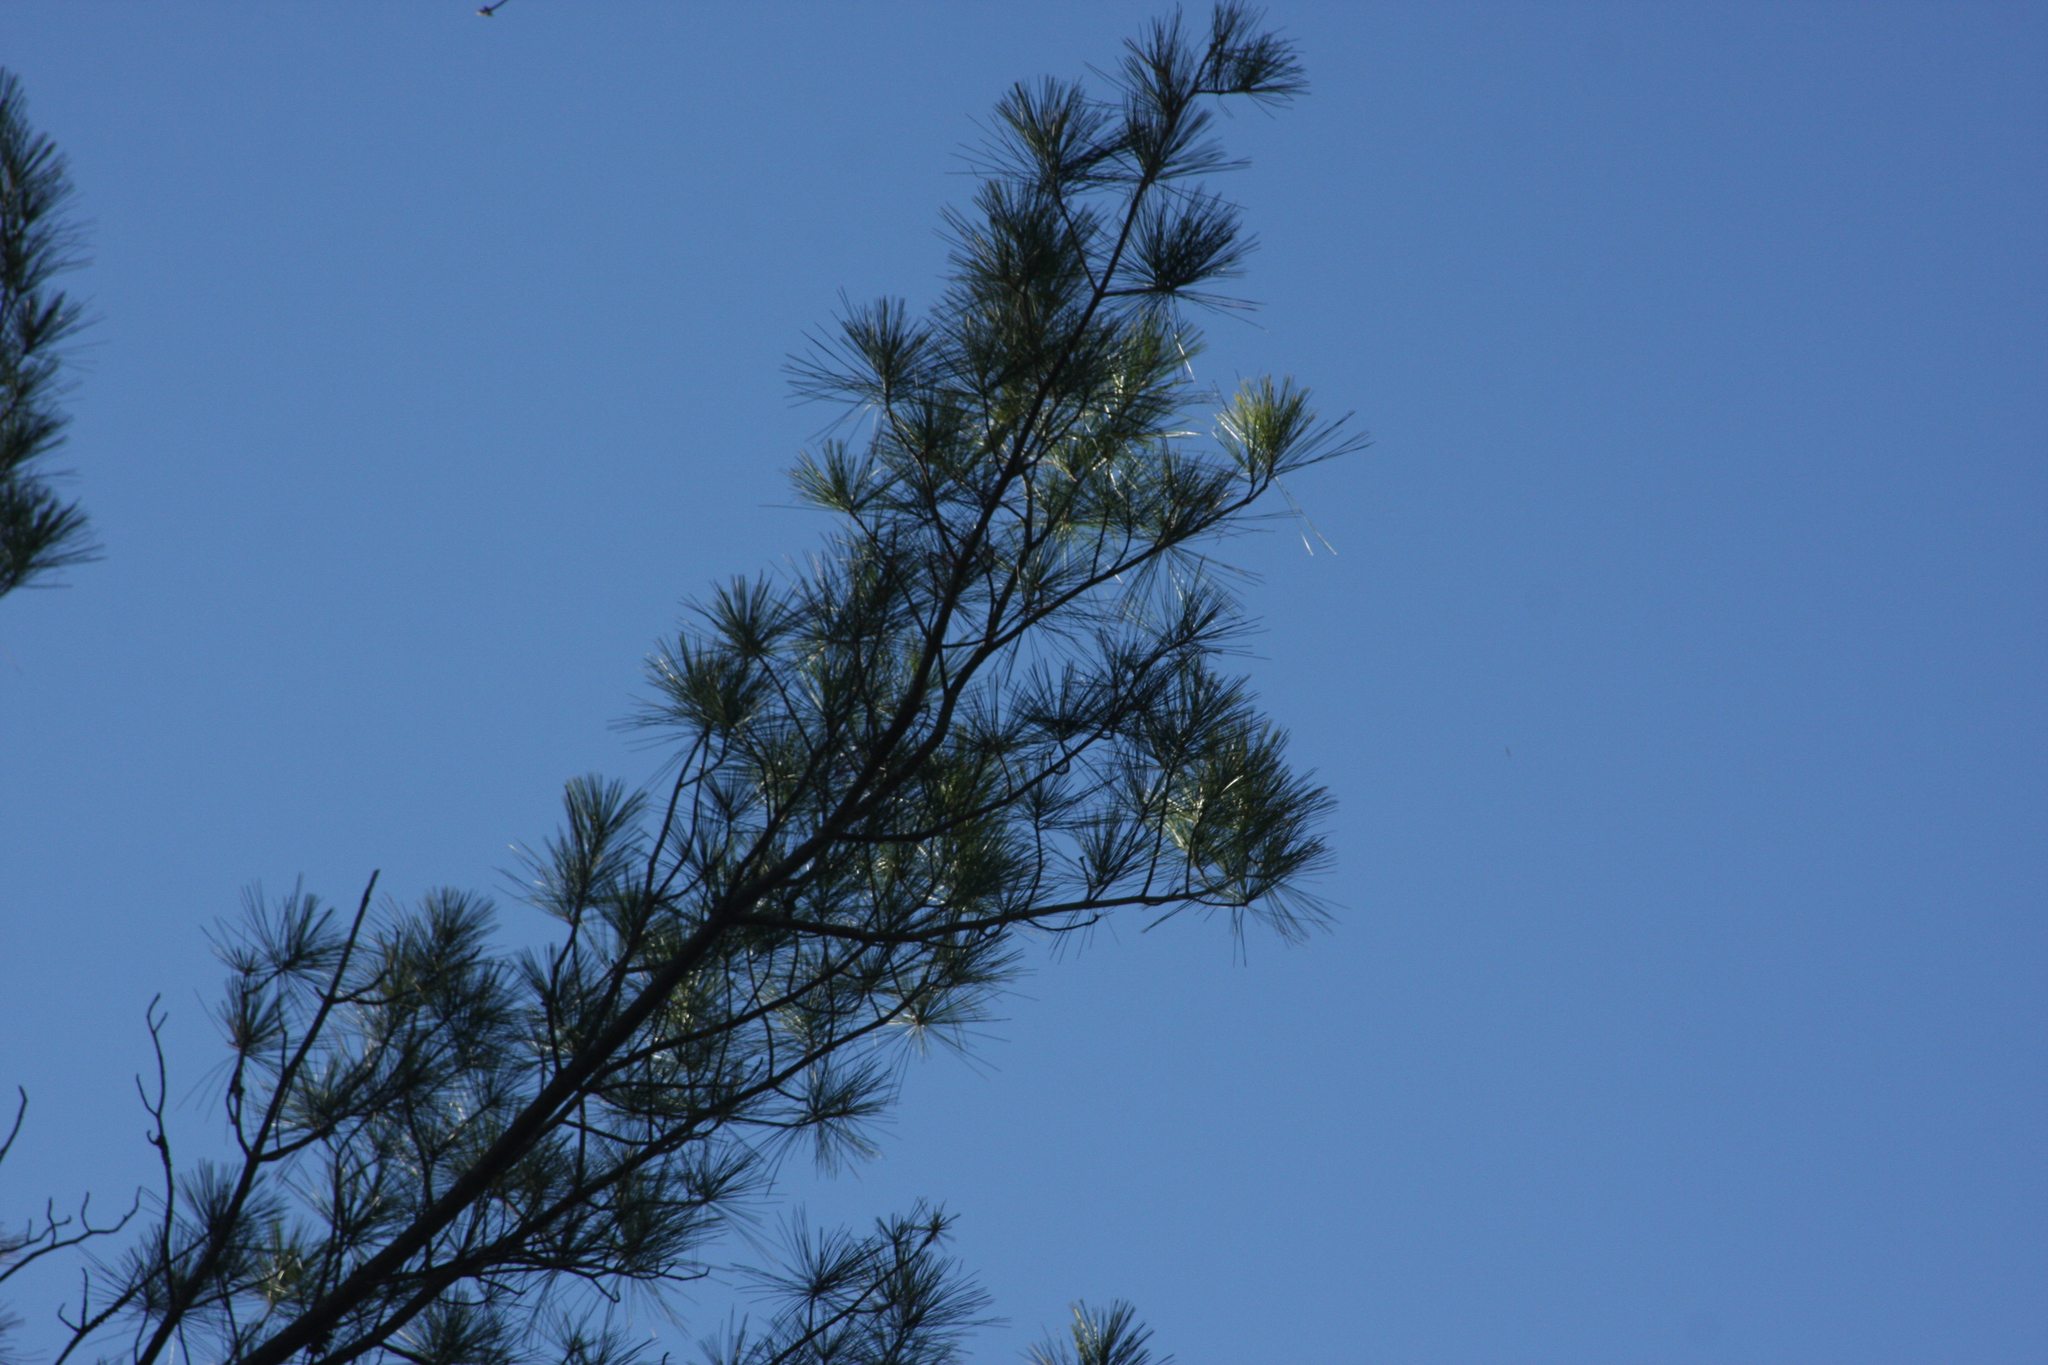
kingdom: Plantae
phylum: Tracheophyta
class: Pinopsida
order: Pinales
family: Pinaceae
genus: Pinus
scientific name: Pinus strobus
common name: Weymouth pine
